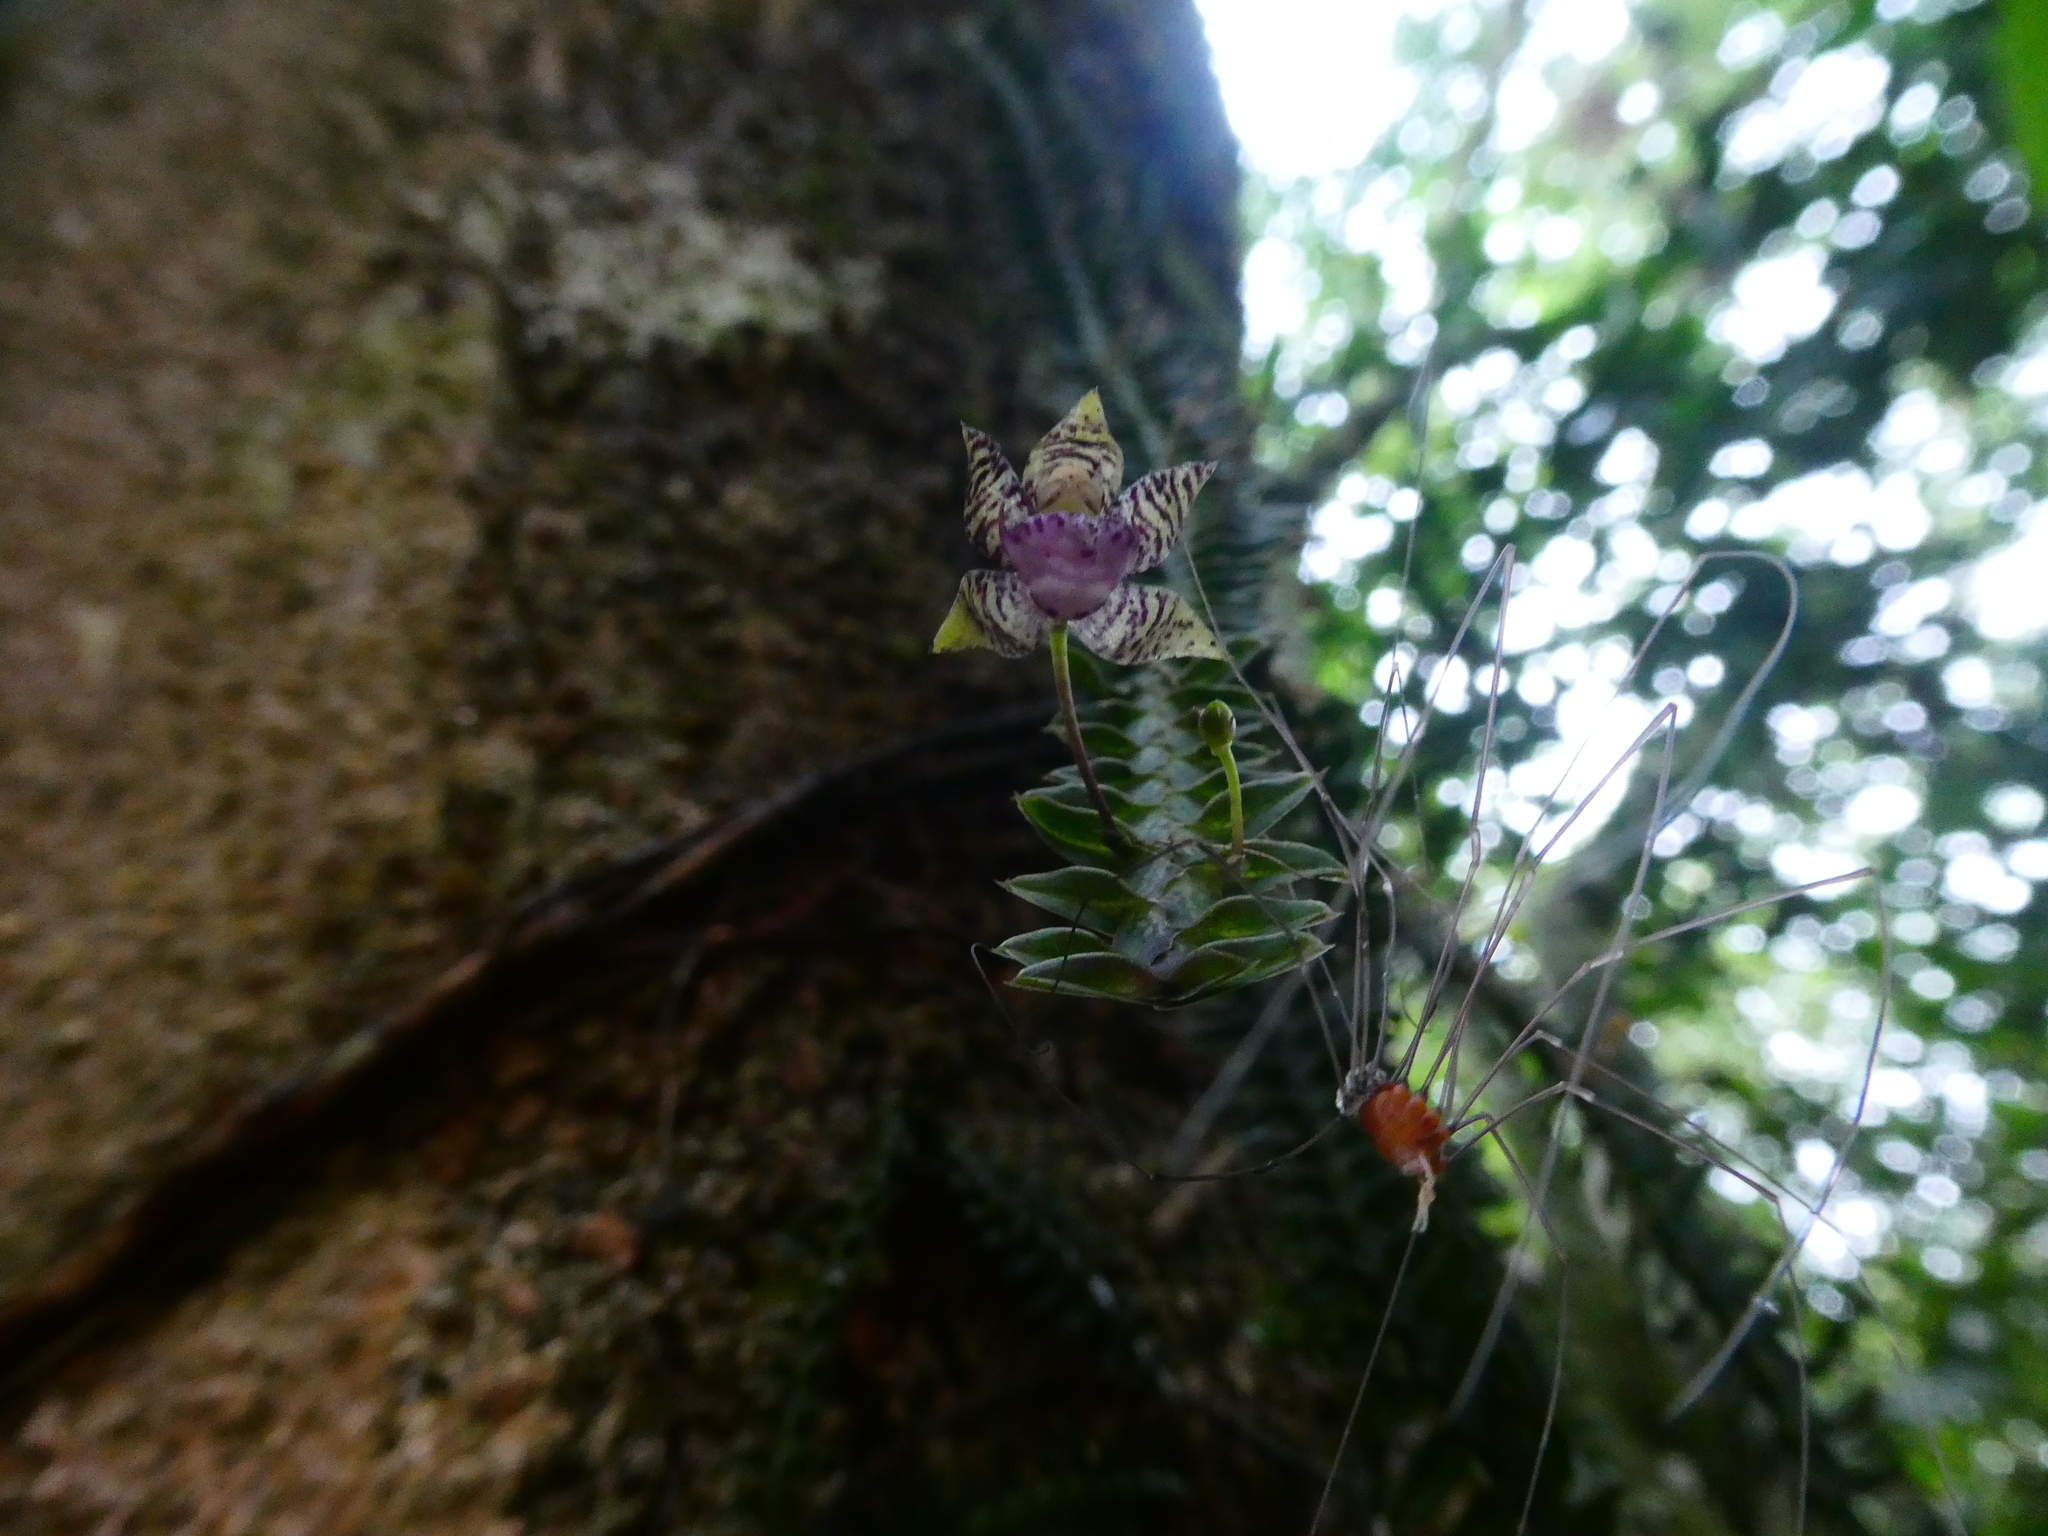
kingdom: Plantae
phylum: Tracheophyta
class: Liliopsida
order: Asparagales
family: Orchidaceae
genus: Dichaea
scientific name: Dichaea neglecta
